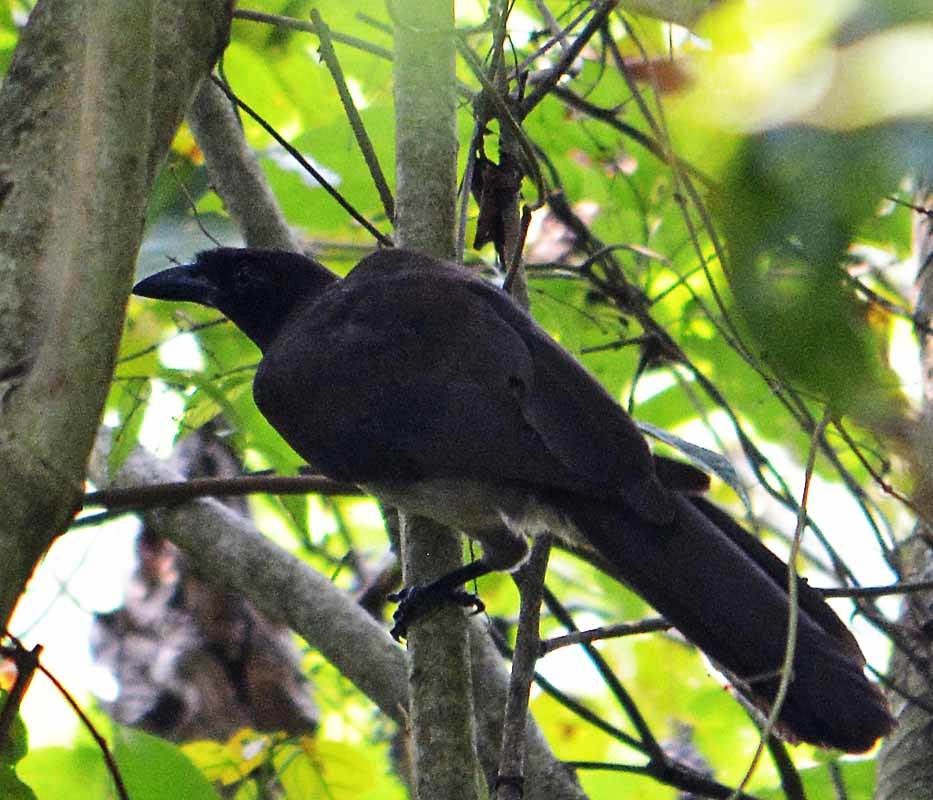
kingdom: Animalia
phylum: Chordata
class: Aves
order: Passeriformes
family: Corvidae
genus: Psilorhinus
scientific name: Psilorhinus morio
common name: Brown jay
